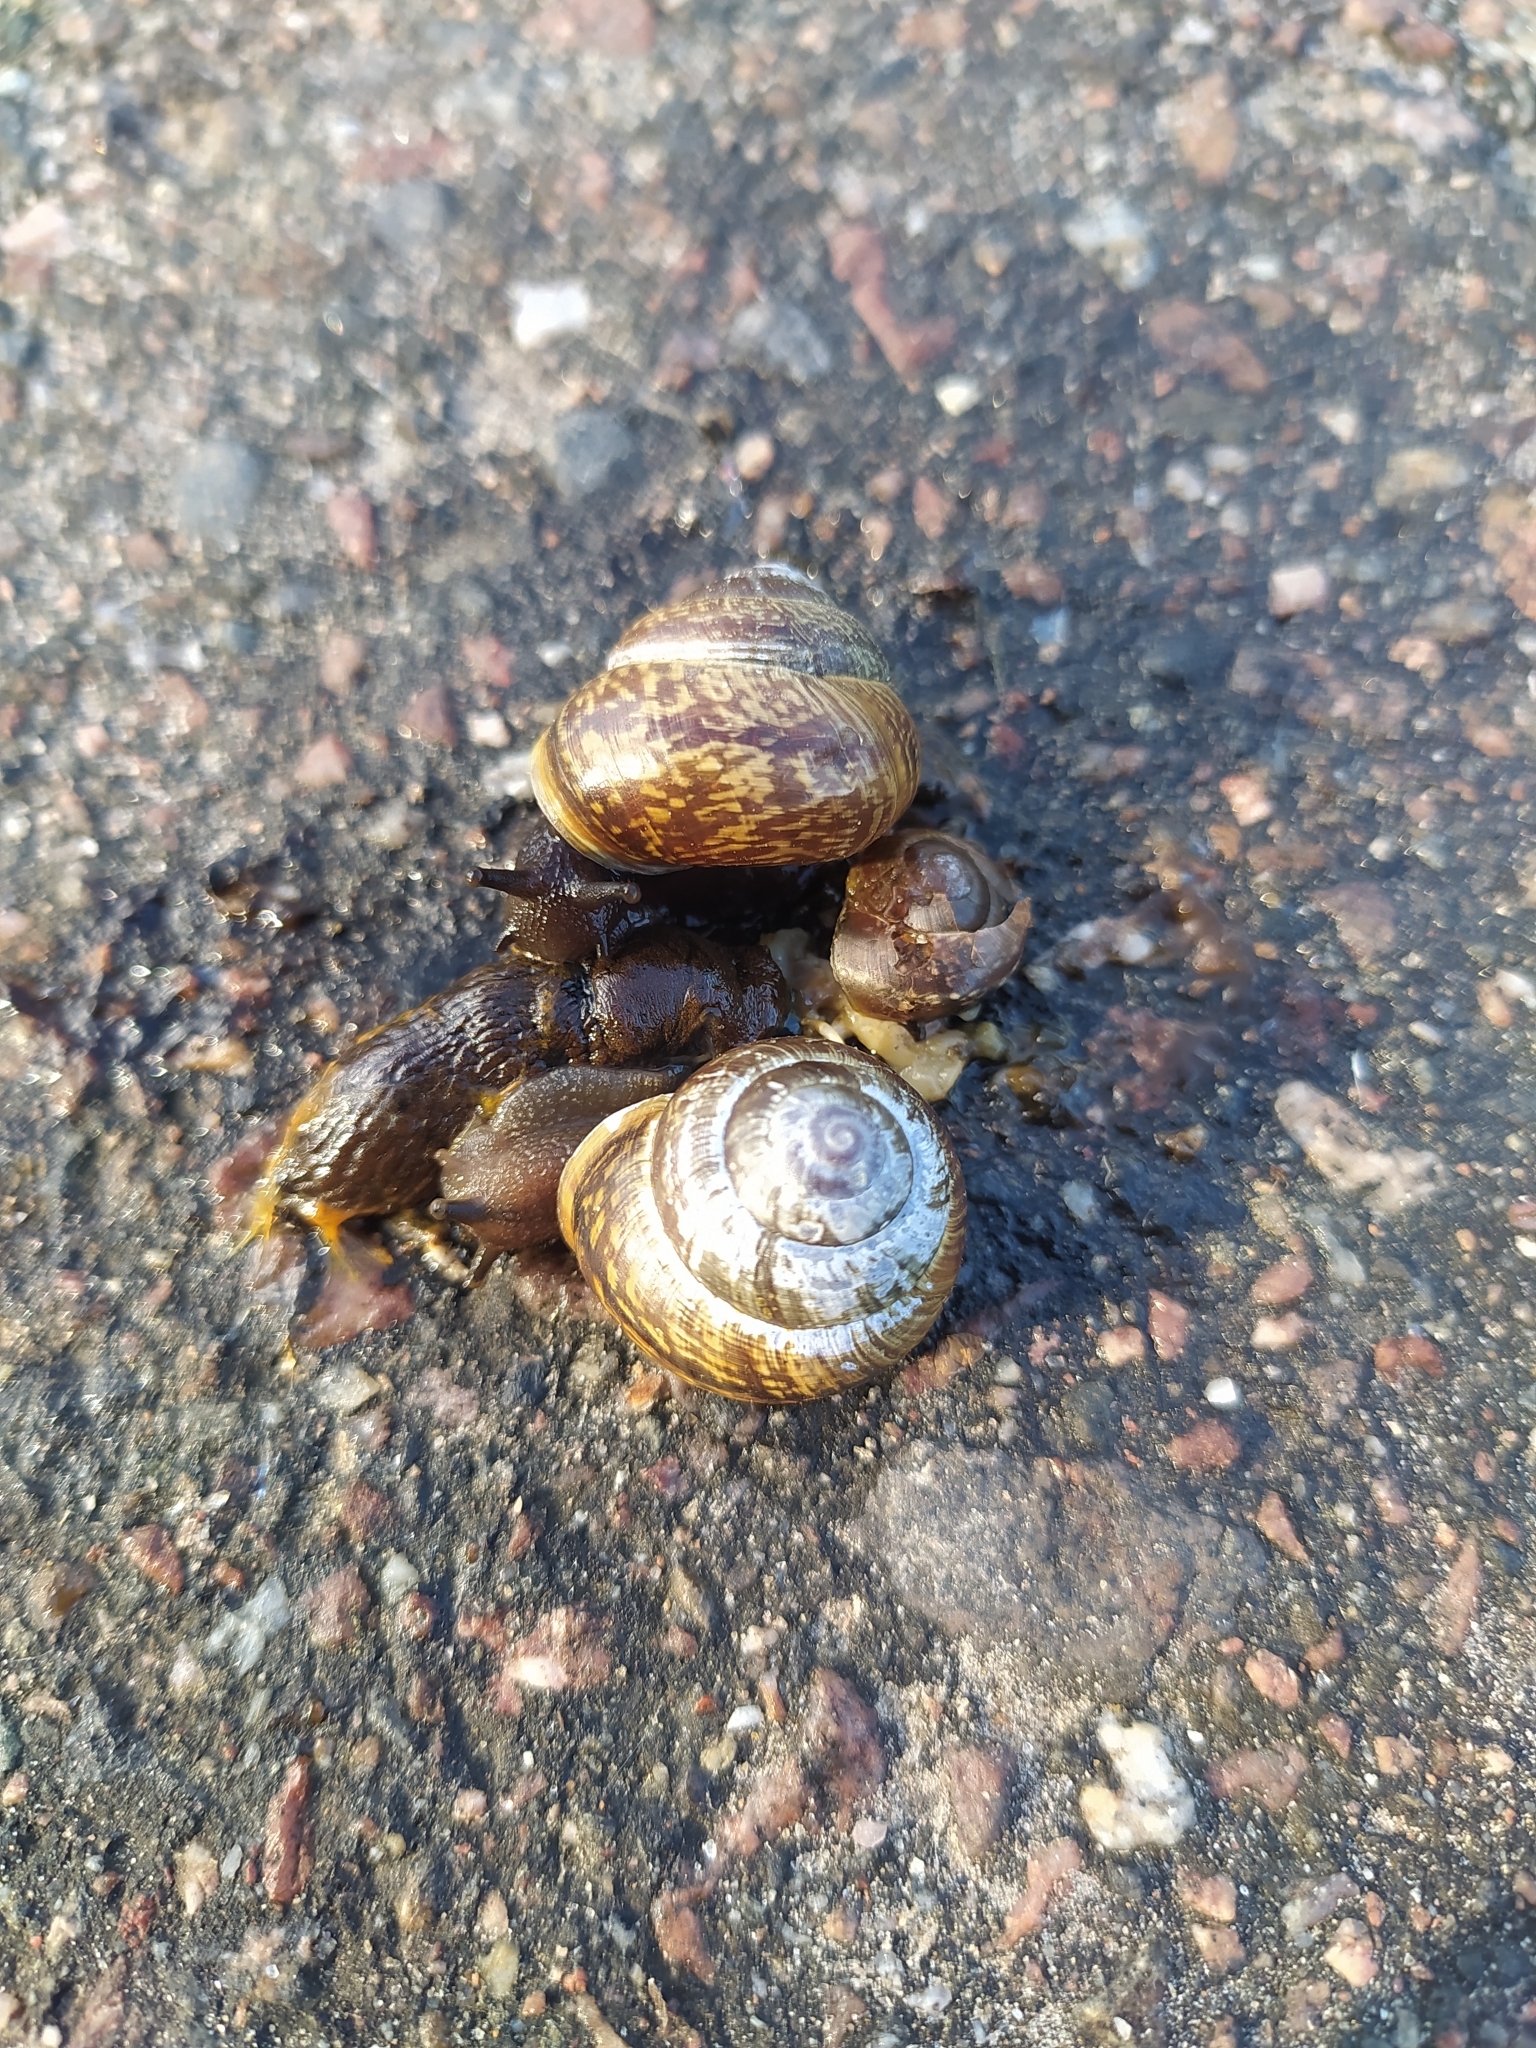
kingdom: Animalia
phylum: Mollusca
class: Gastropoda
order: Stylommatophora
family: Helicidae
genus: Arianta
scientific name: Arianta arbustorum
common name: Copse snail
